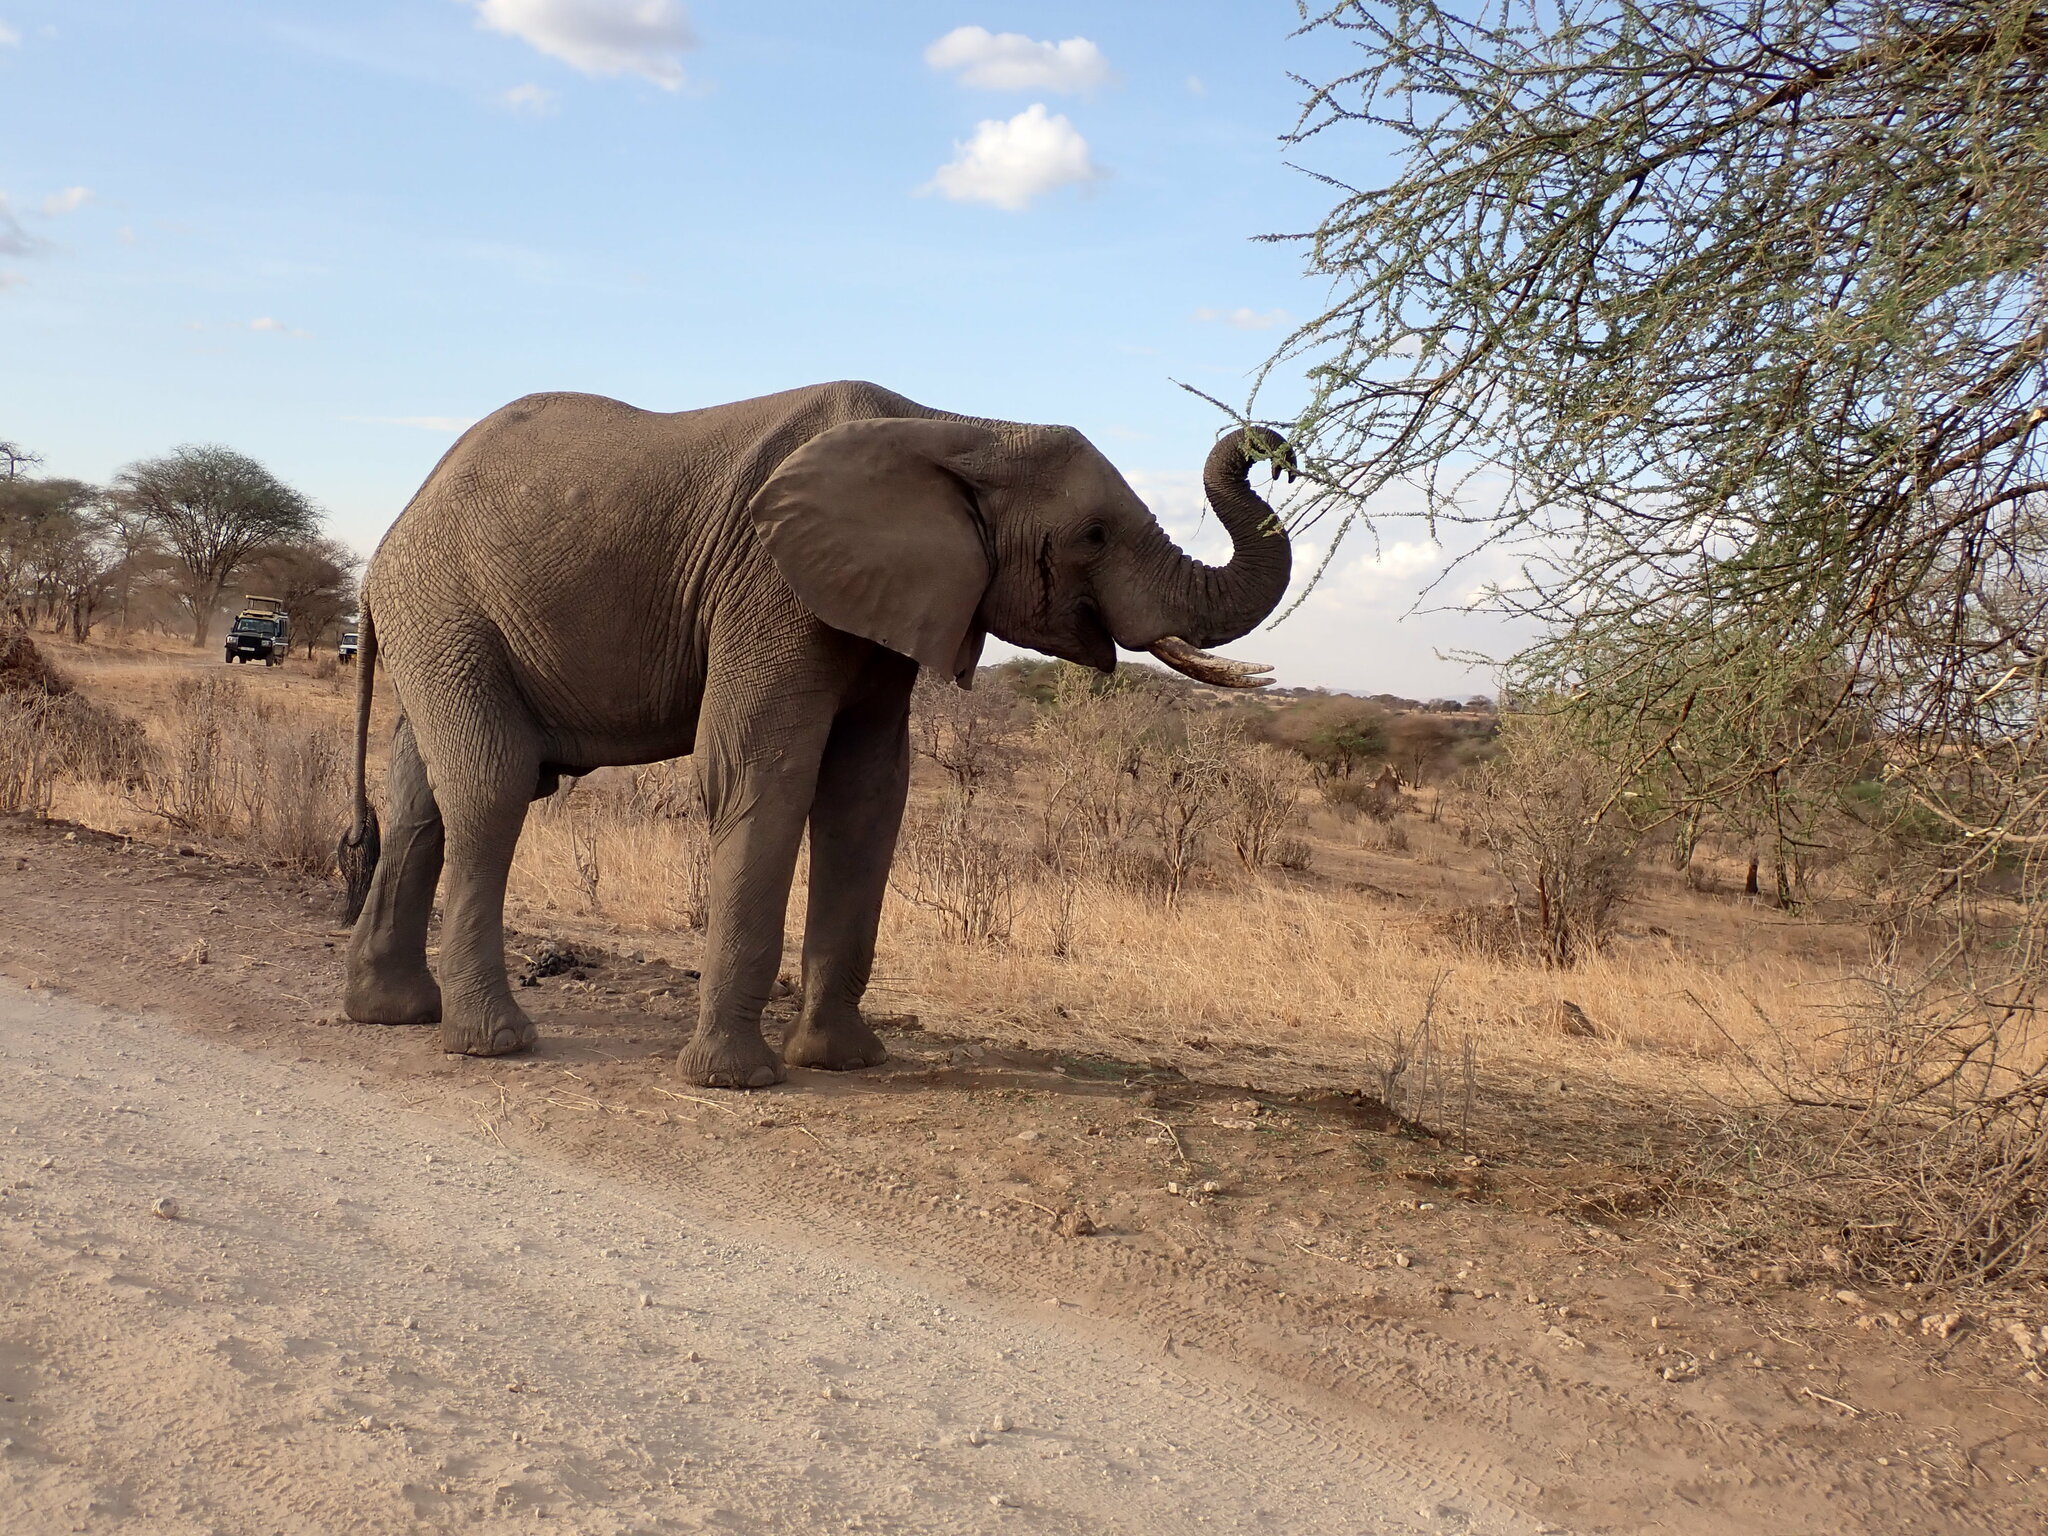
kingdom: Animalia
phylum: Chordata
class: Mammalia
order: Proboscidea
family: Elephantidae
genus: Loxodonta
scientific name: Loxodonta africana
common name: African elephant
